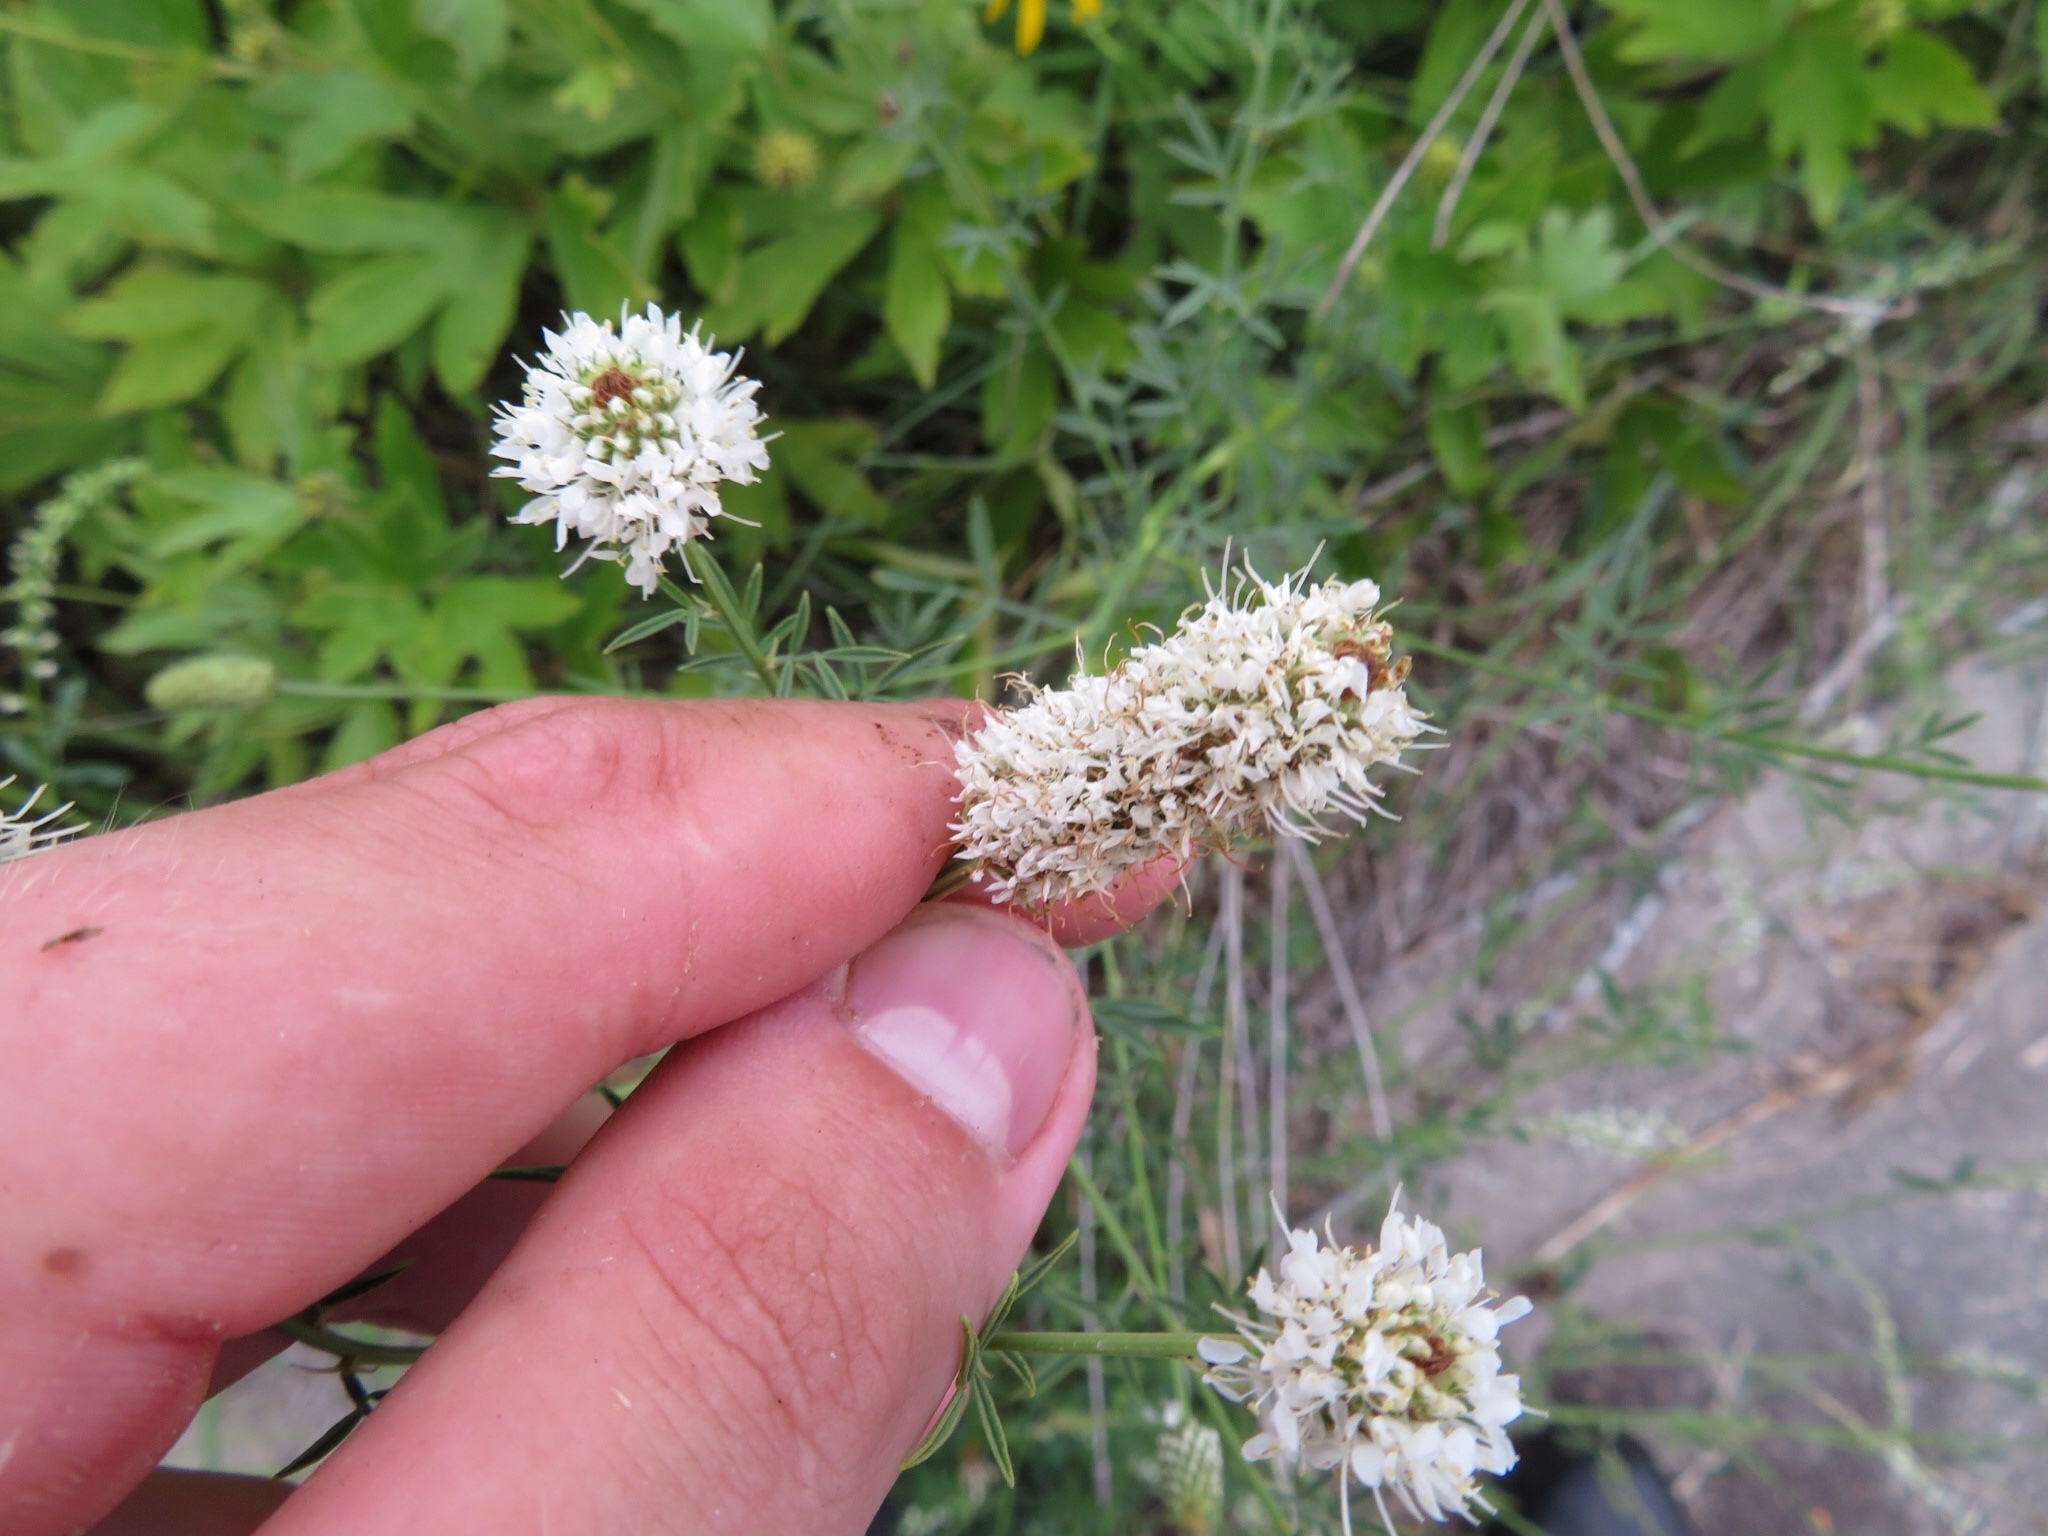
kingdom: Plantae
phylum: Tracheophyta
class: Magnoliopsida
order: Fabales
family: Fabaceae
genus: Dalea
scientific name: Dalea candida
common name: White prairie-clover
